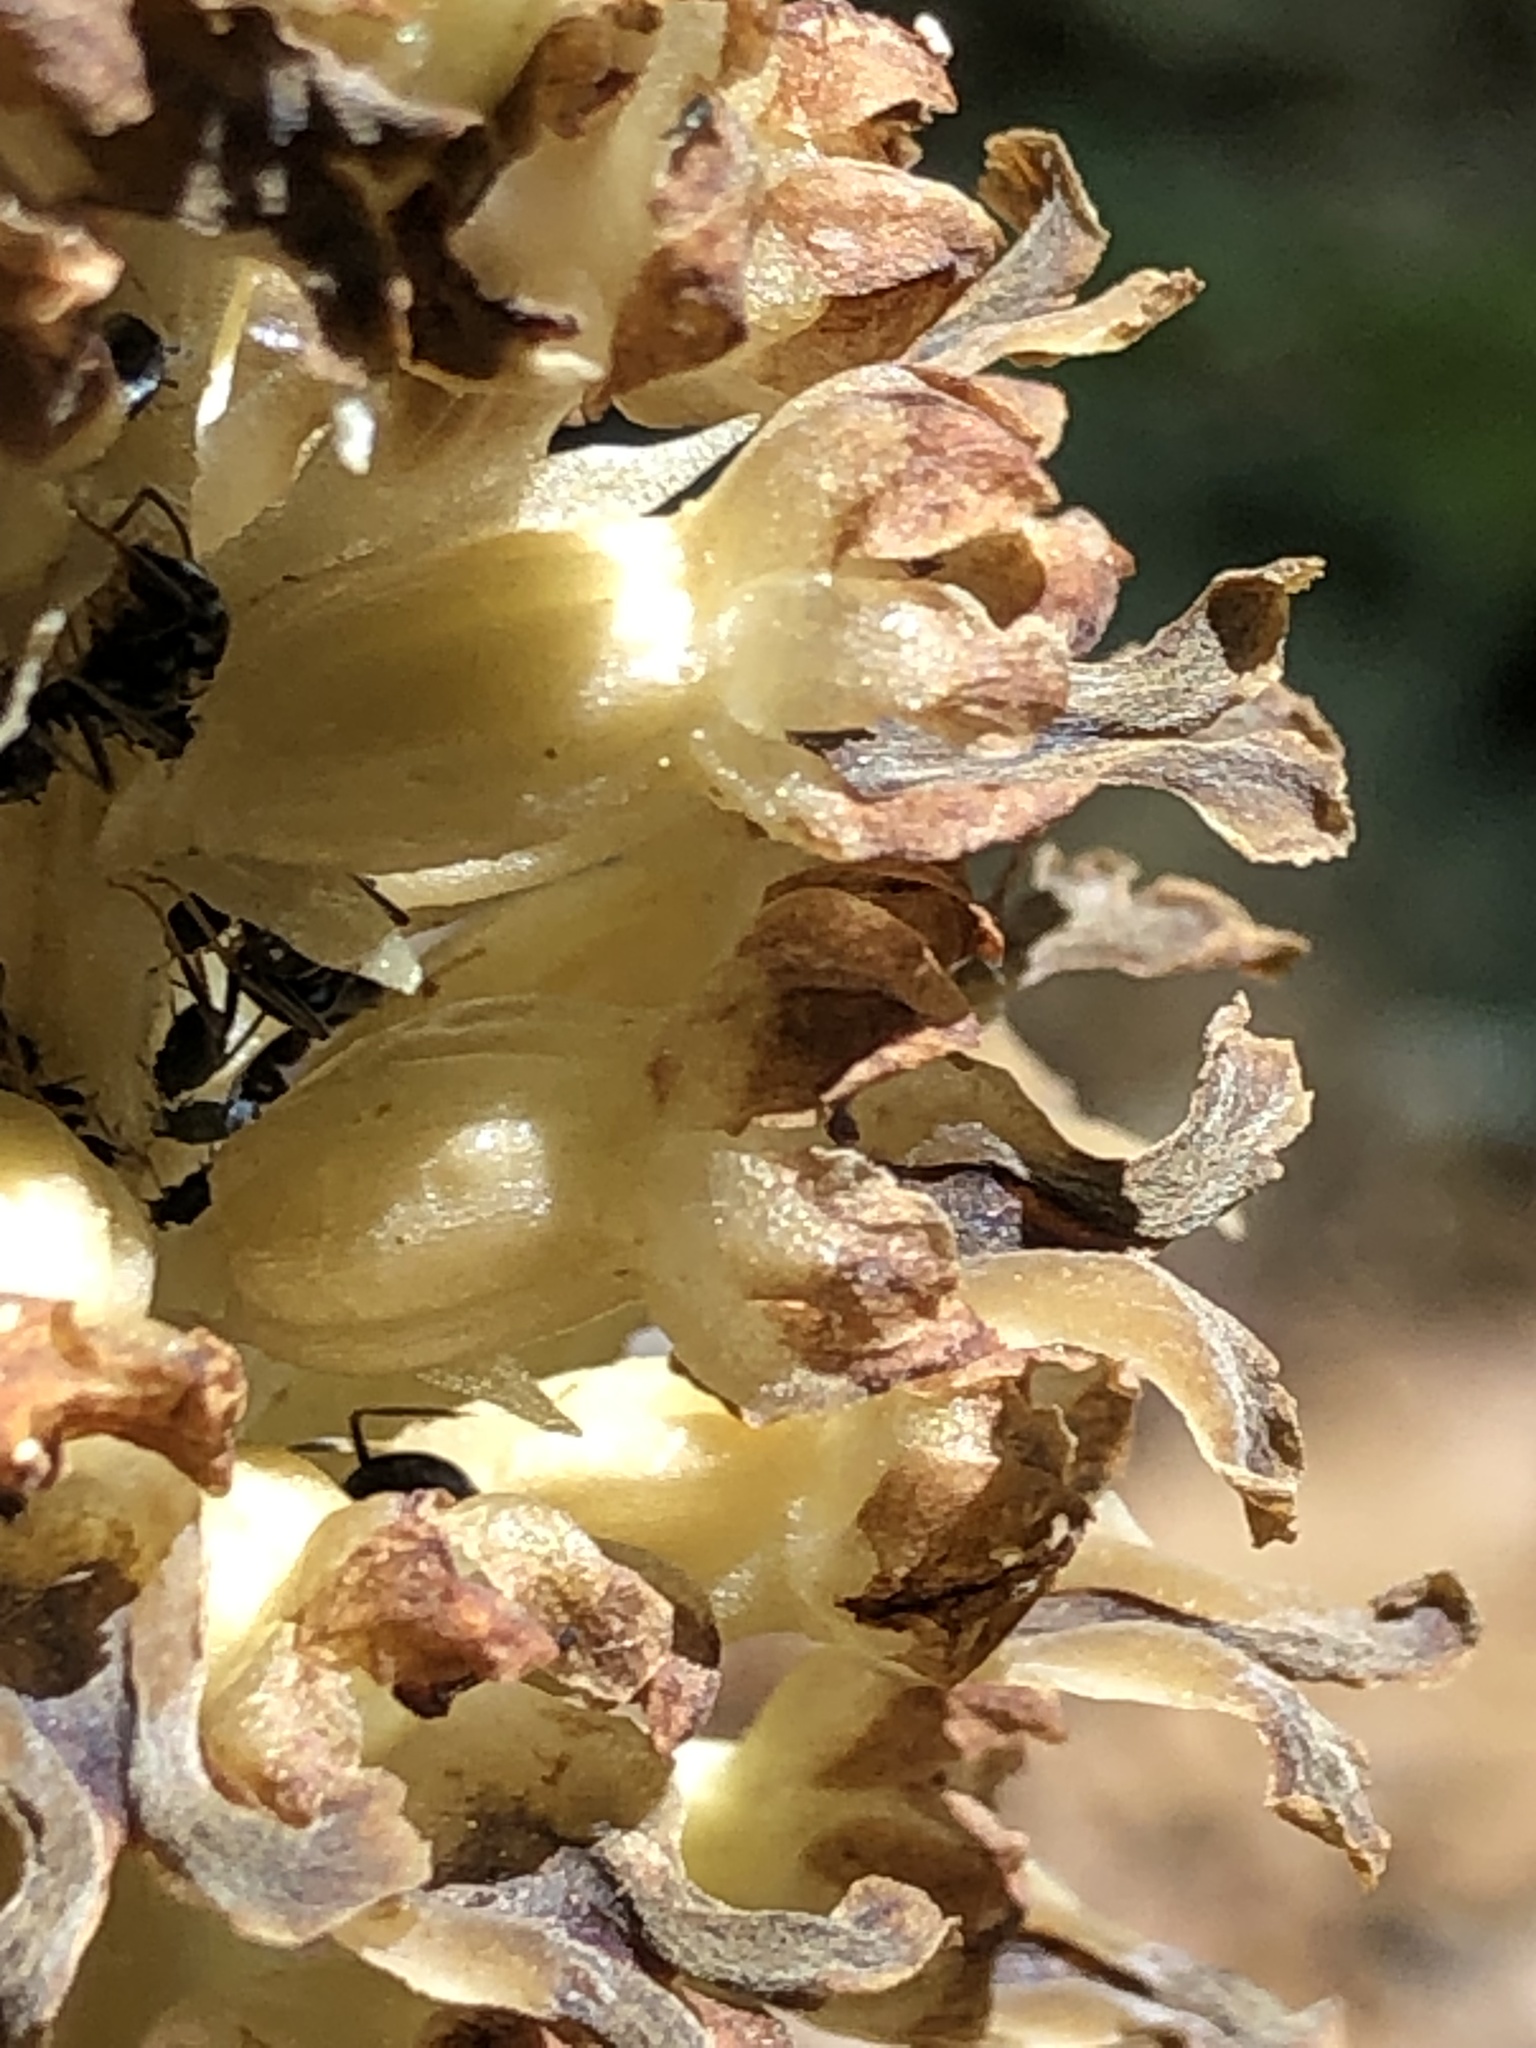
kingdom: Plantae
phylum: Tracheophyta
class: Liliopsida
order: Asparagales
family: Orchidaceae
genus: Neottia
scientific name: Neottia nidus-avis
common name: Bird's-nest orchid
